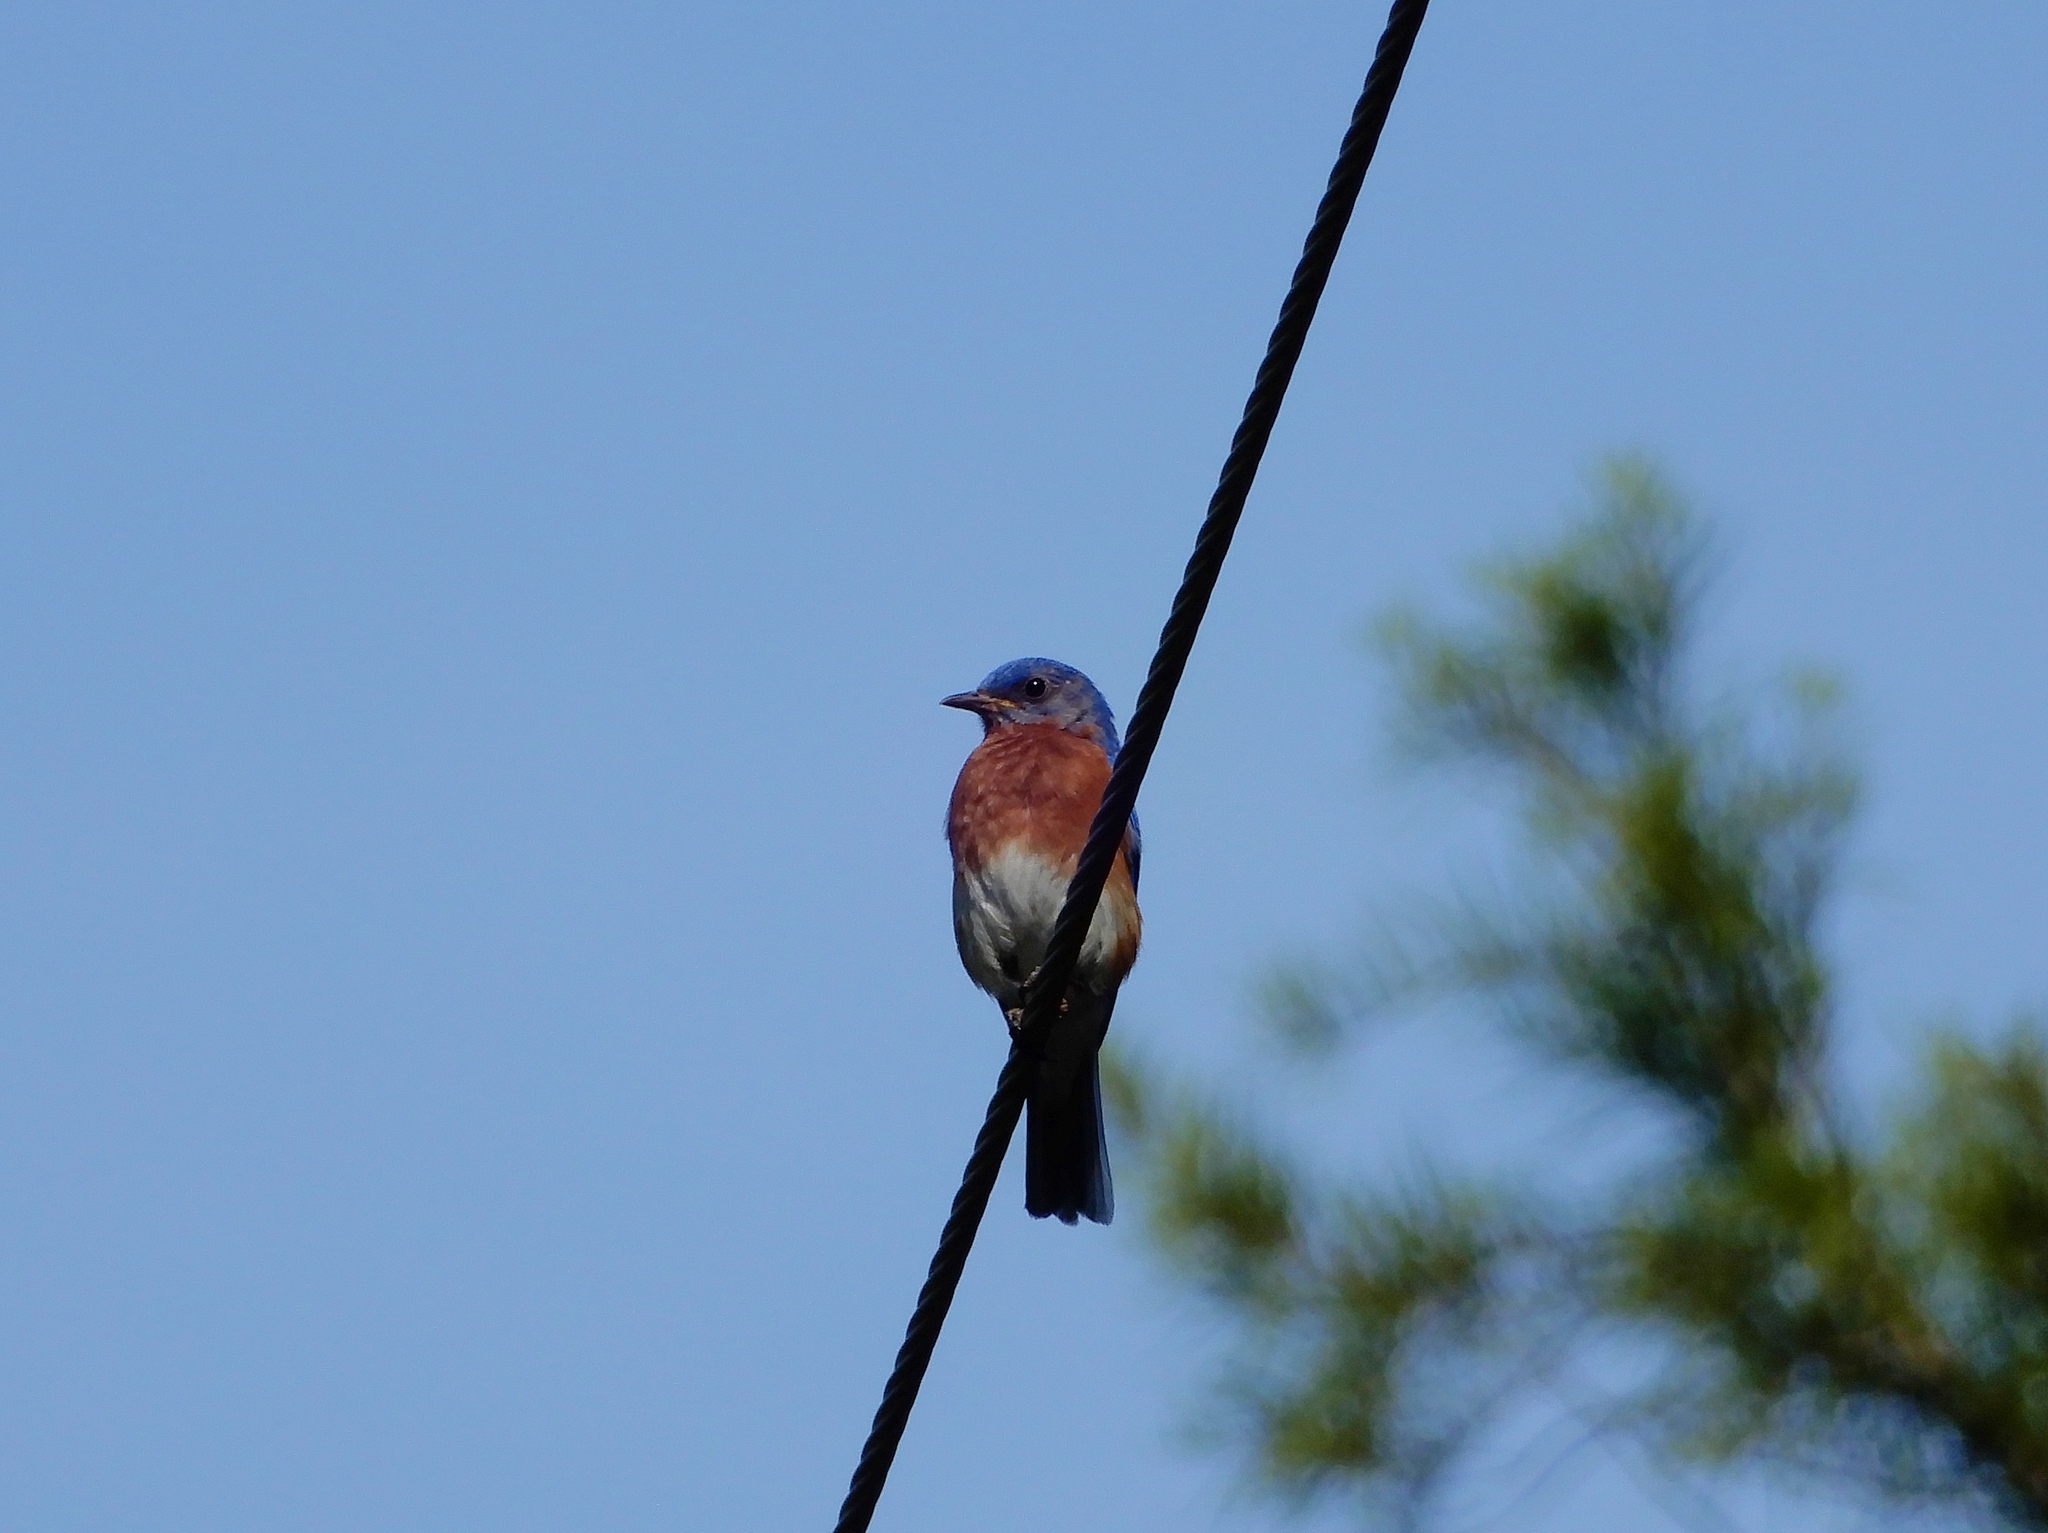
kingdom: Animalia
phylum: Chordata
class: Aves
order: Passeriformes
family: Turdidae
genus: Sialia
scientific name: Sialia sialis
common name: Eastern bluebird
